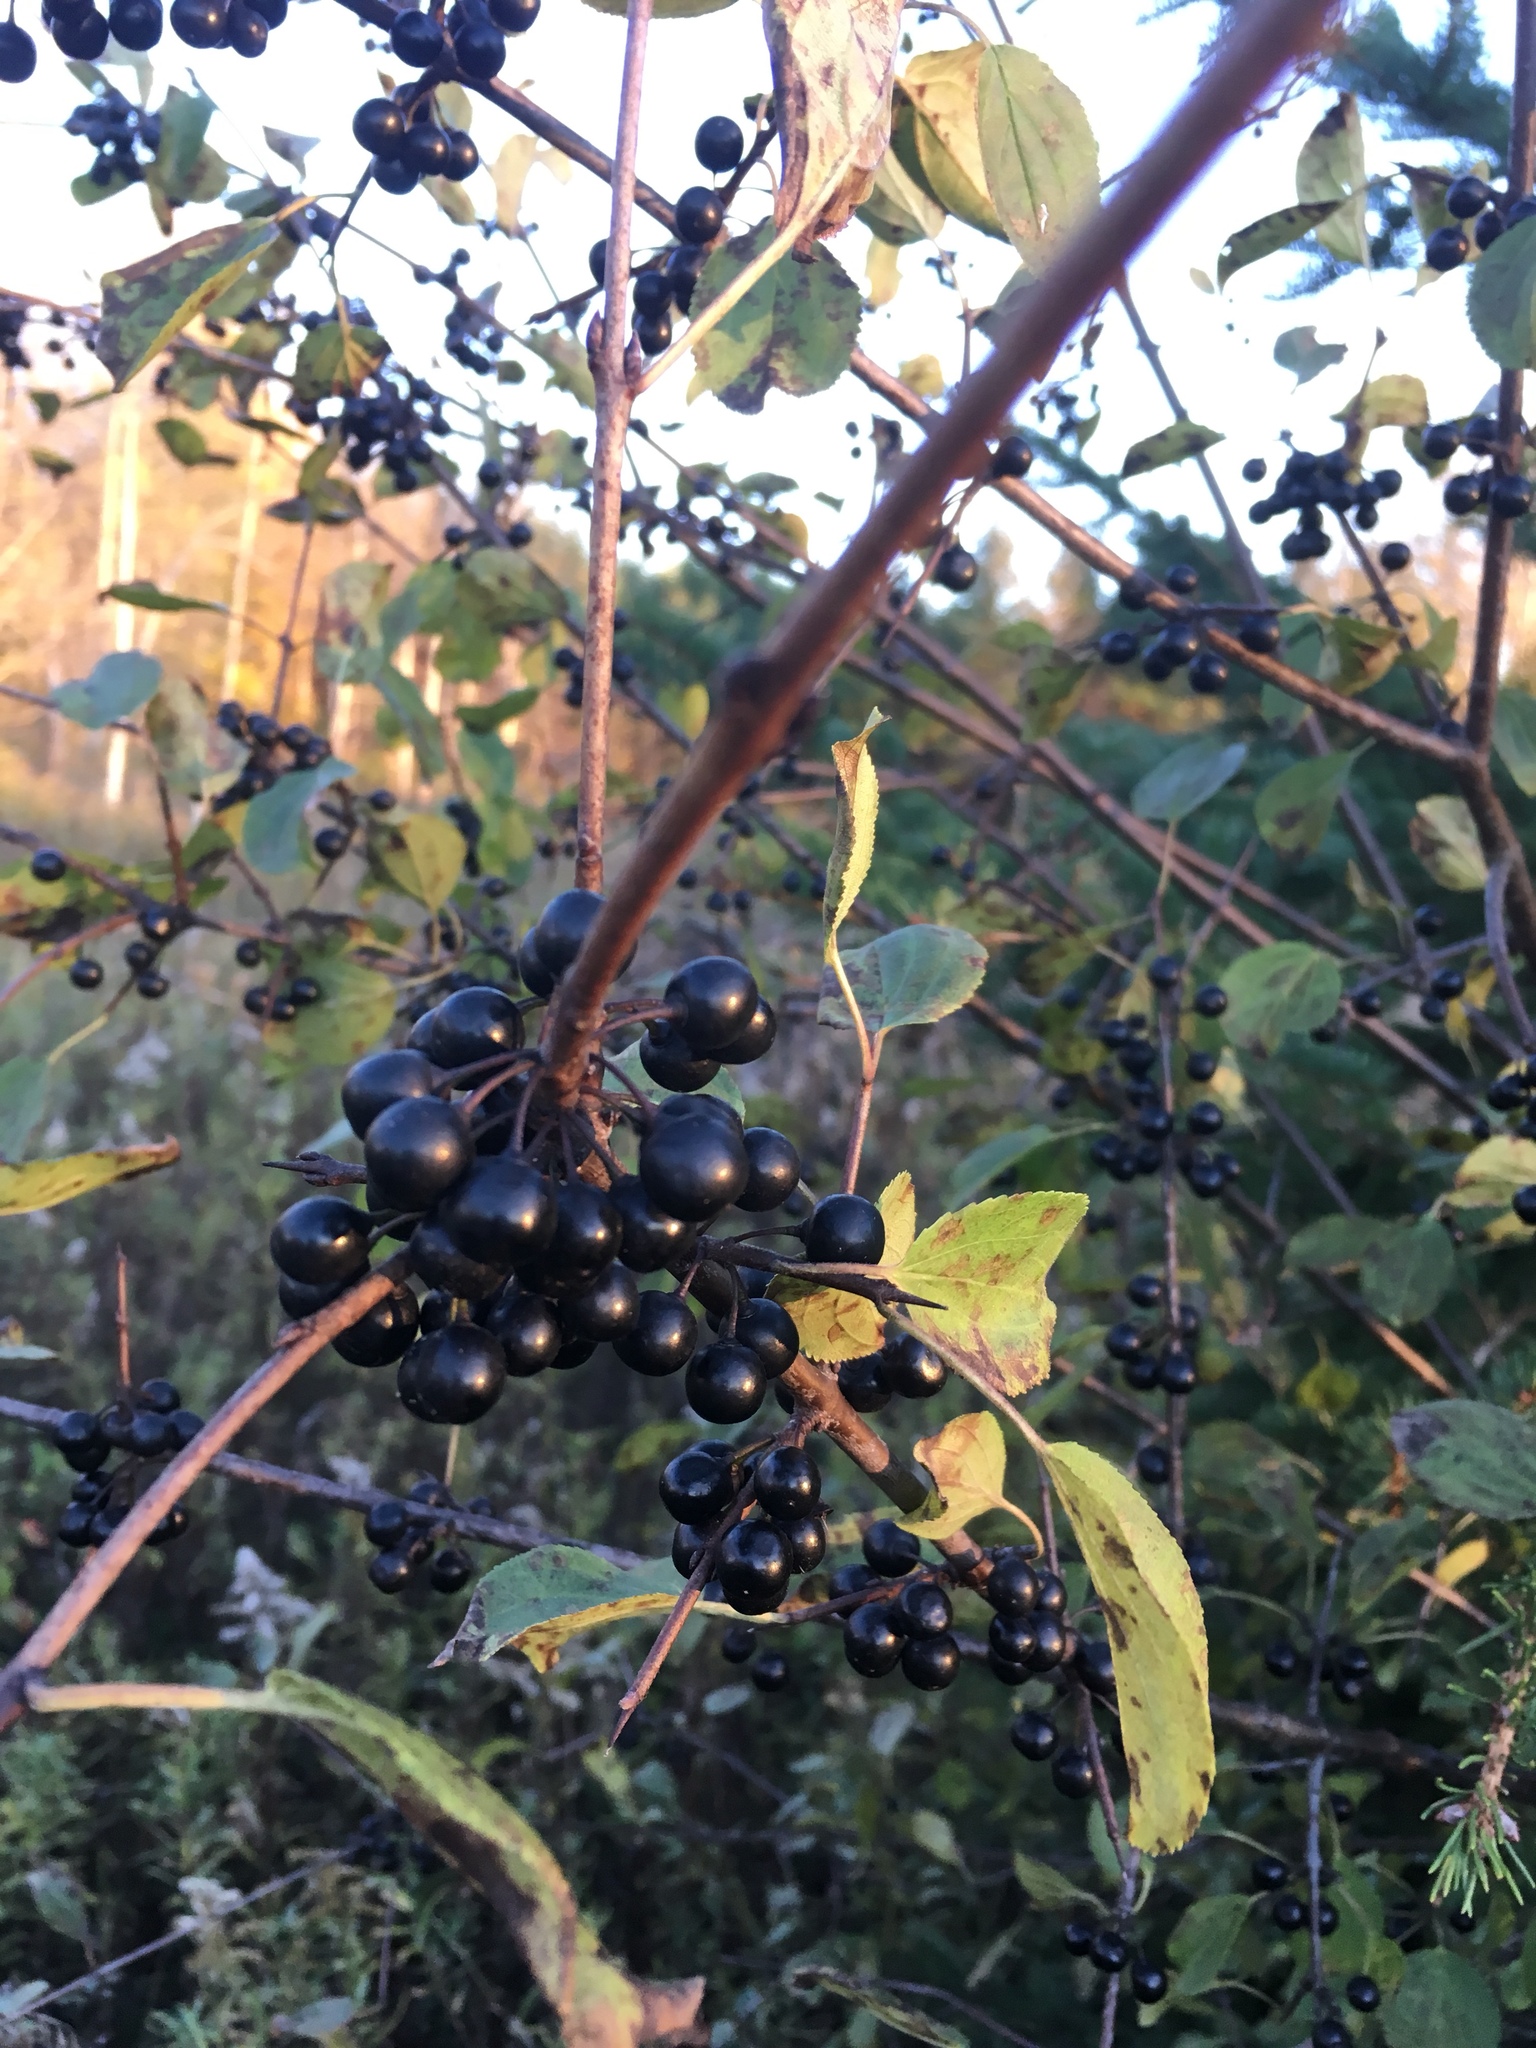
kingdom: Plantae
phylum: Tracheophyta
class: Magnoliopsida
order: Rosales
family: Rhamnaceae
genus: Rhamnus
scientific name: Rhamnus cathartica
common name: Common buckthorn
